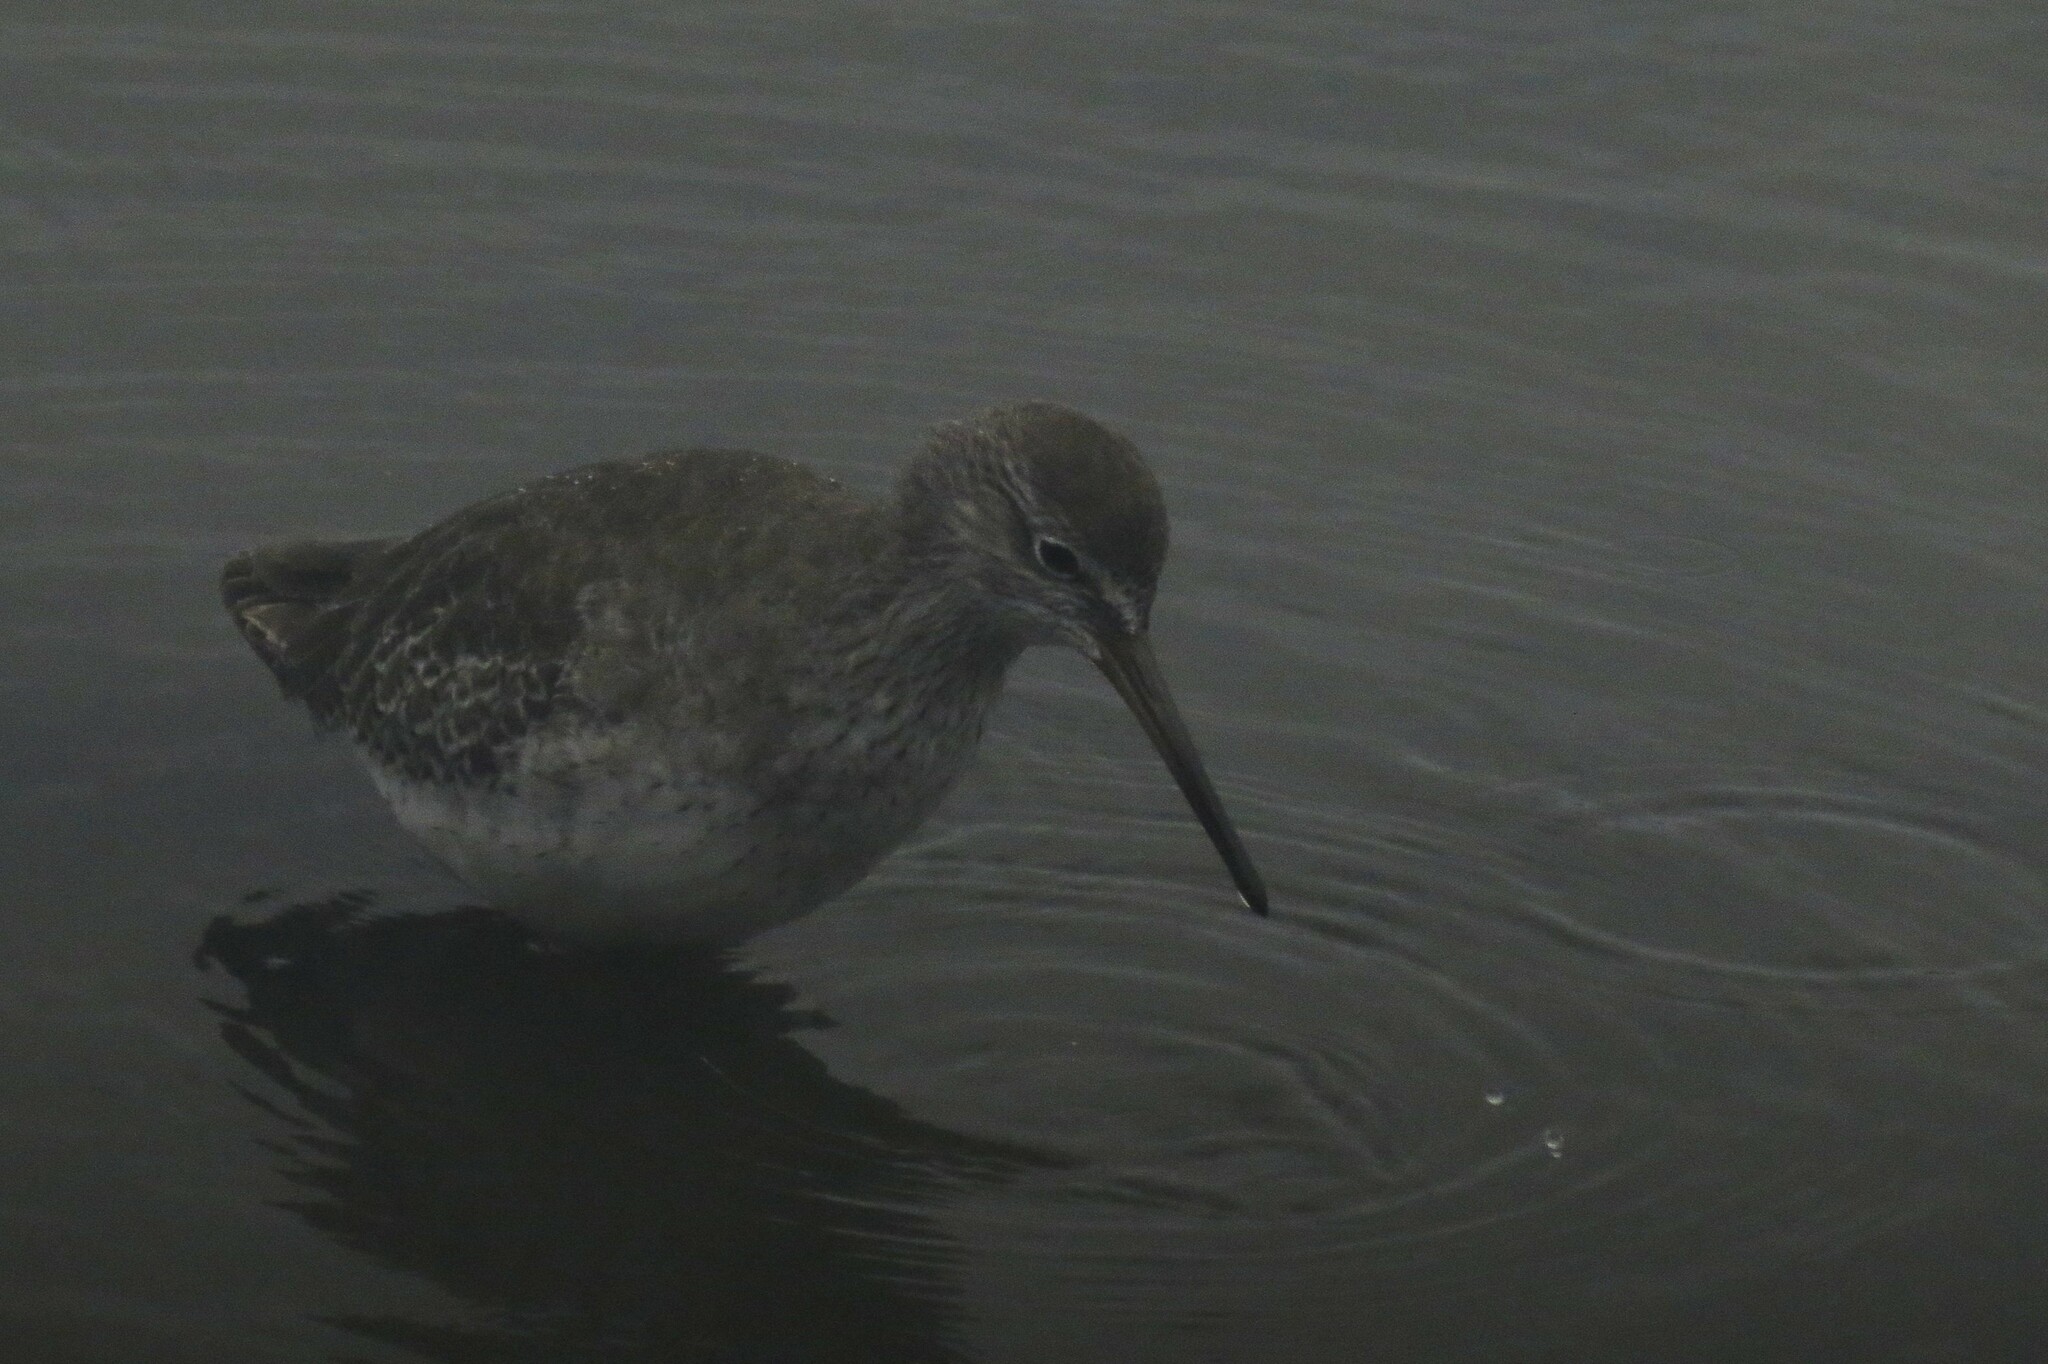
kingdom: Animalia
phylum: Chordata
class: Aves
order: Charadriiformes
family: Scolopacidae
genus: Tringa
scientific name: Tringa totanus
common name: Common redshank
